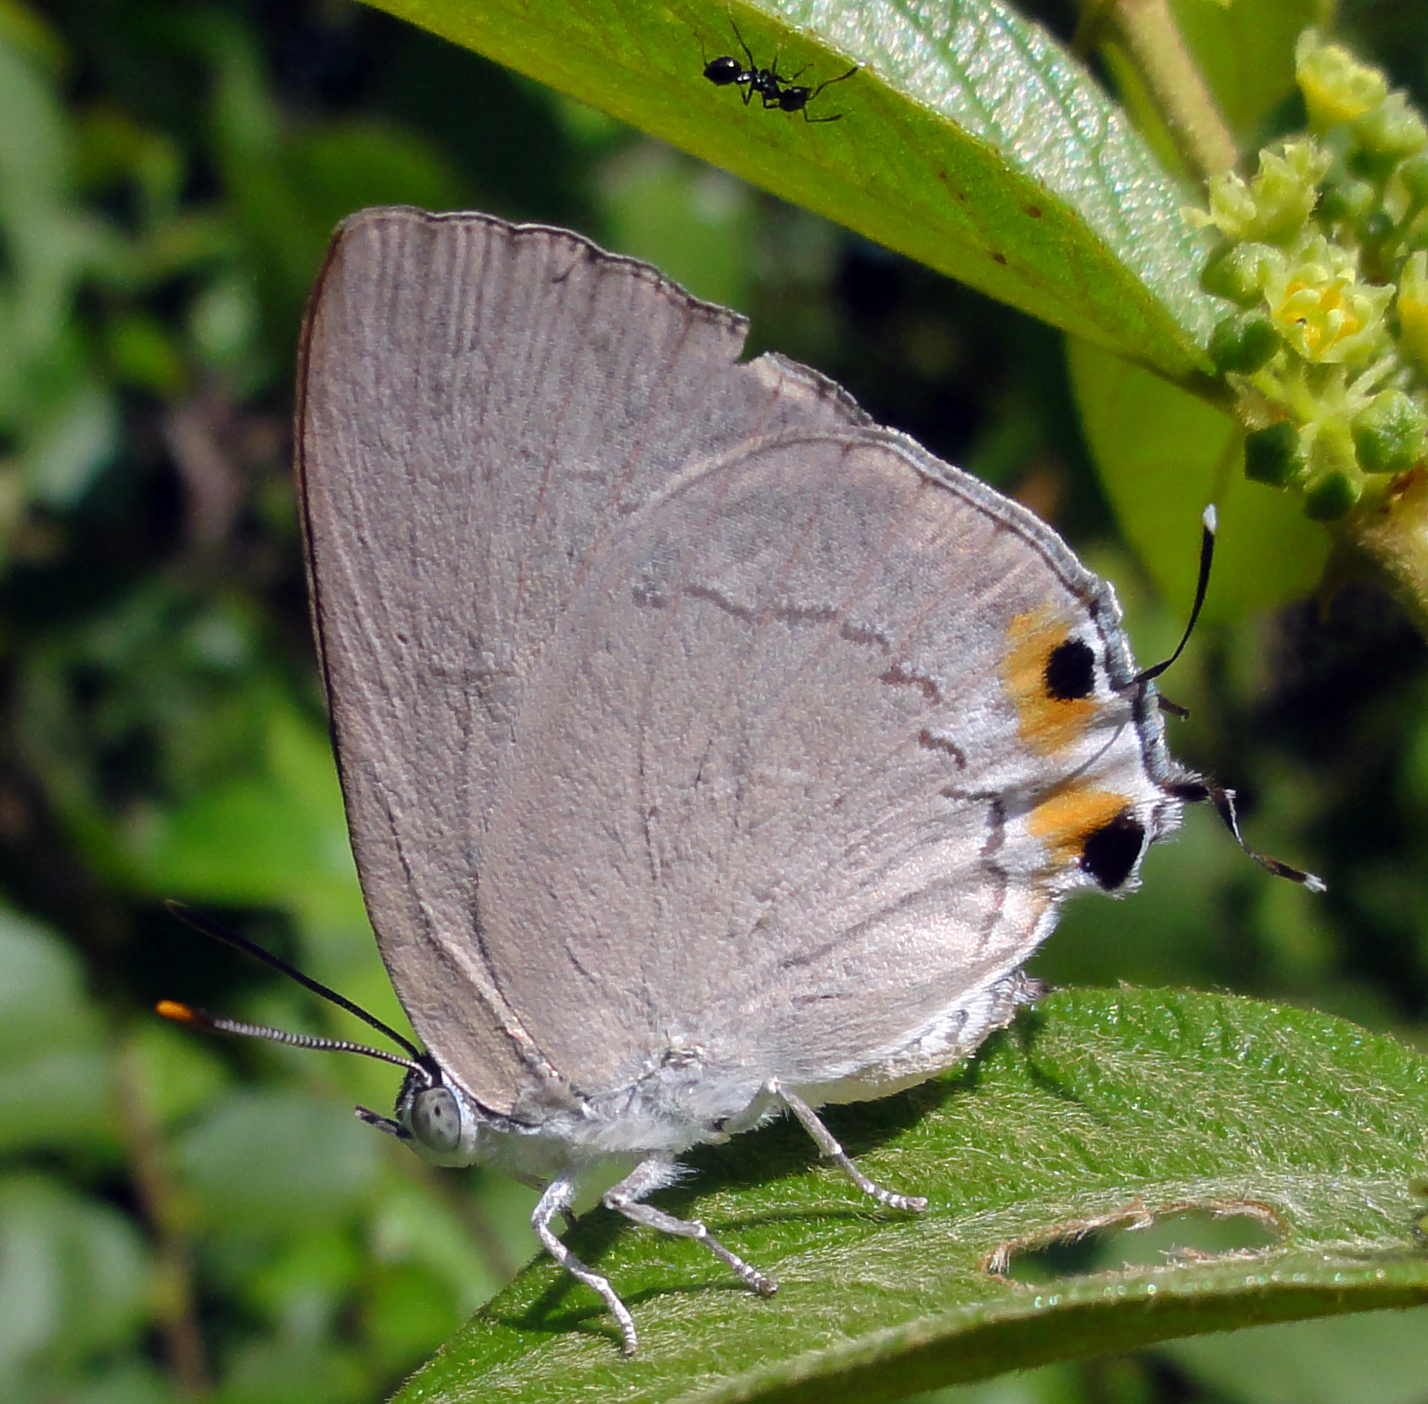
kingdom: Animalia
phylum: Arthropoda
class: Insecta
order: Lepidoptera
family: Lycaenidae
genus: Ancema
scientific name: Ancema blanka
